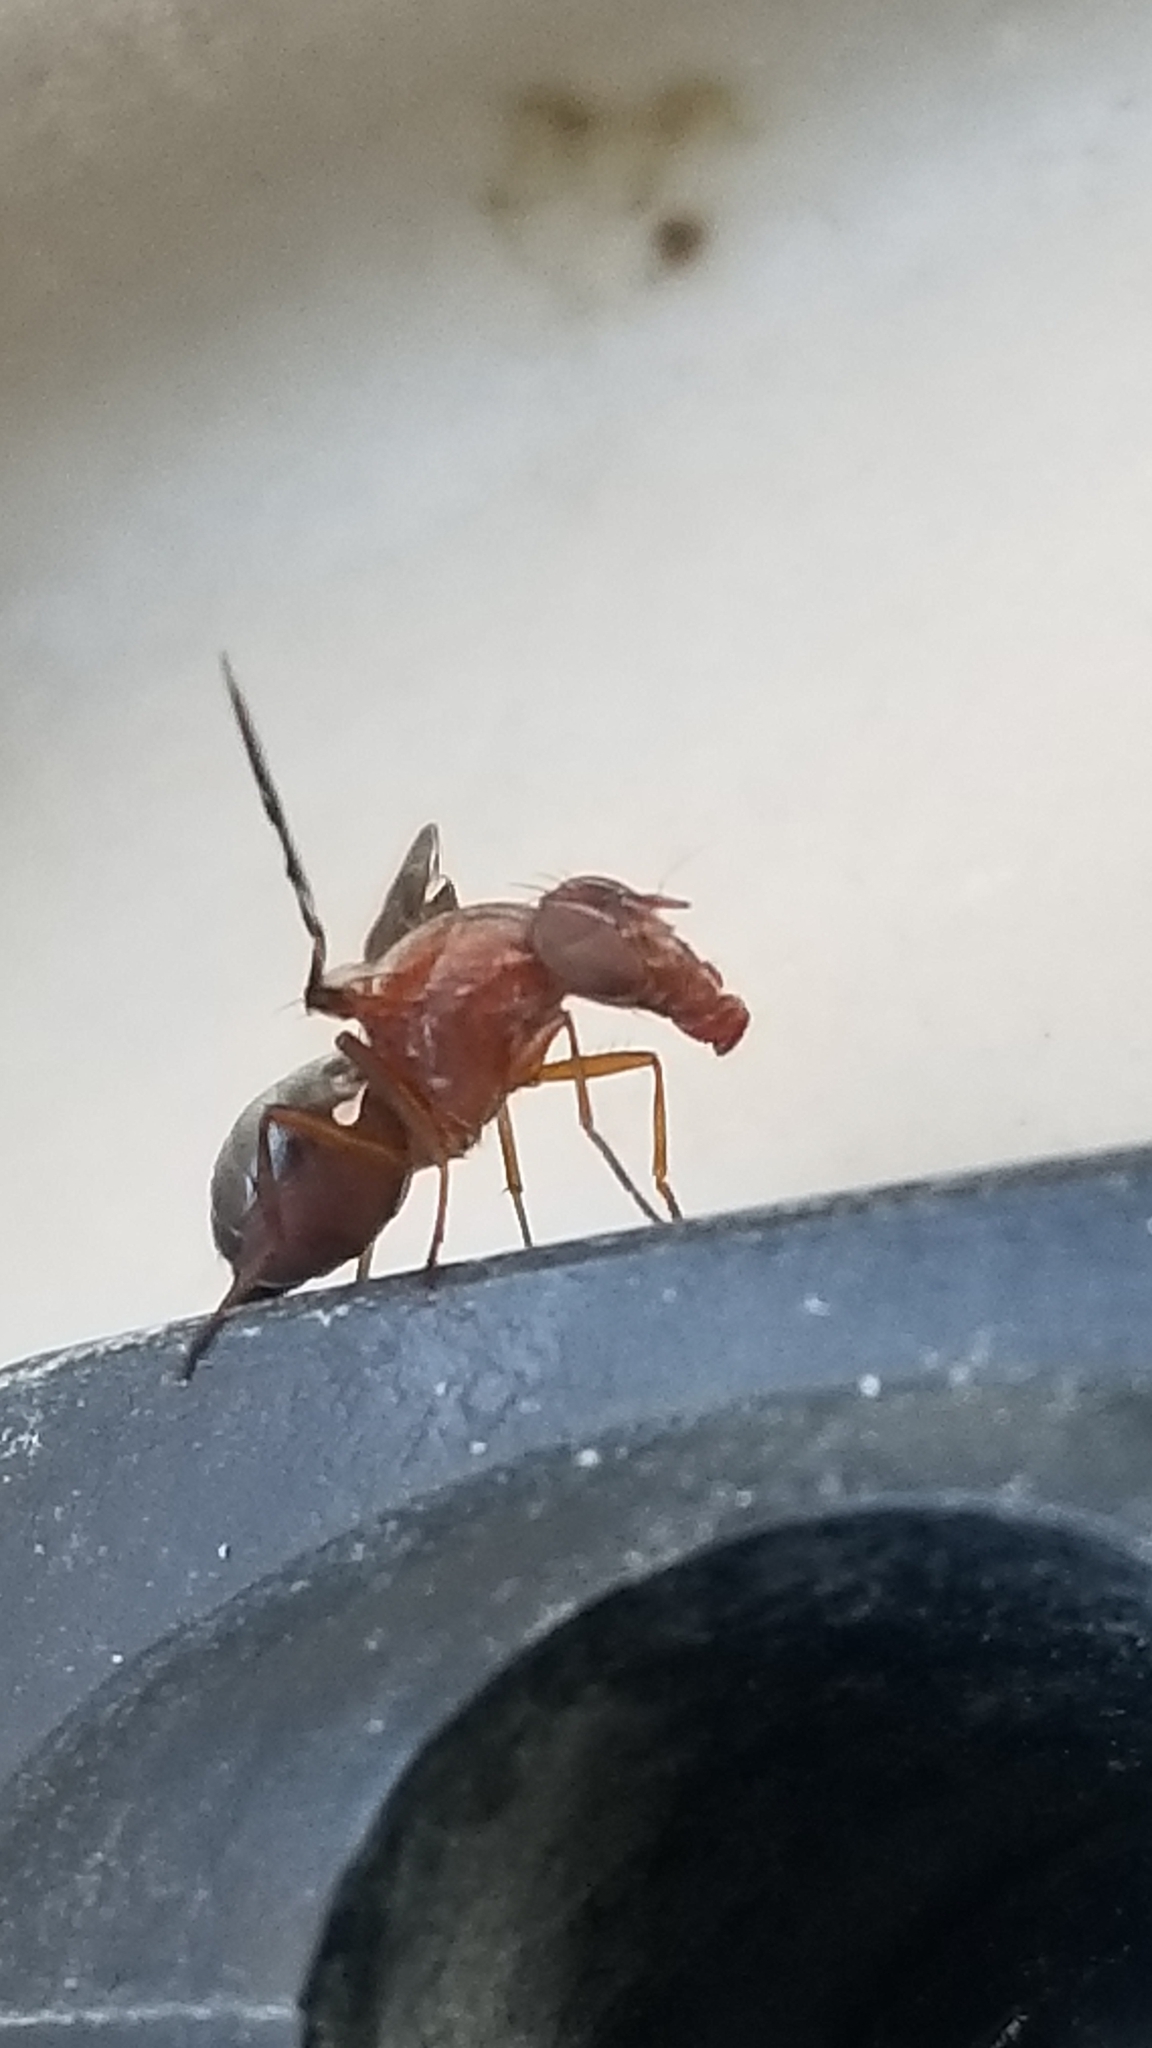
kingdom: Animalia
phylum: Arthropoda
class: Insecta
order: Diptera
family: Ulidiidae
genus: Delphinia
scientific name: Delphinia picta
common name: Common picture-winged fly
